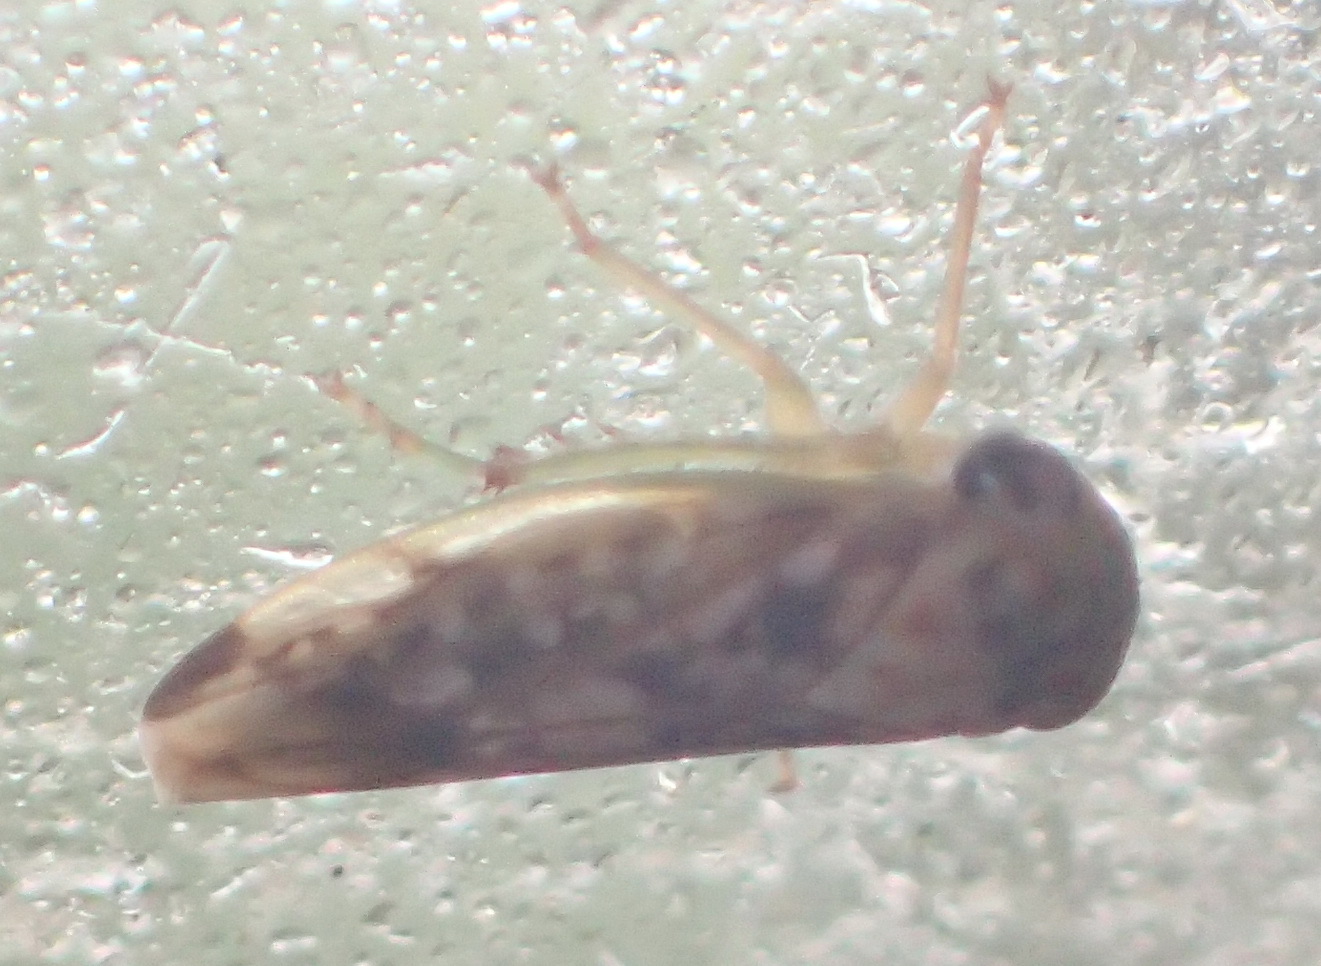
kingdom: Animalia
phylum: Arthropoda
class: Insecta
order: Hemiptera
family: Cicadellidae
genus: Kopamerra
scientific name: Kopamerra haupti
